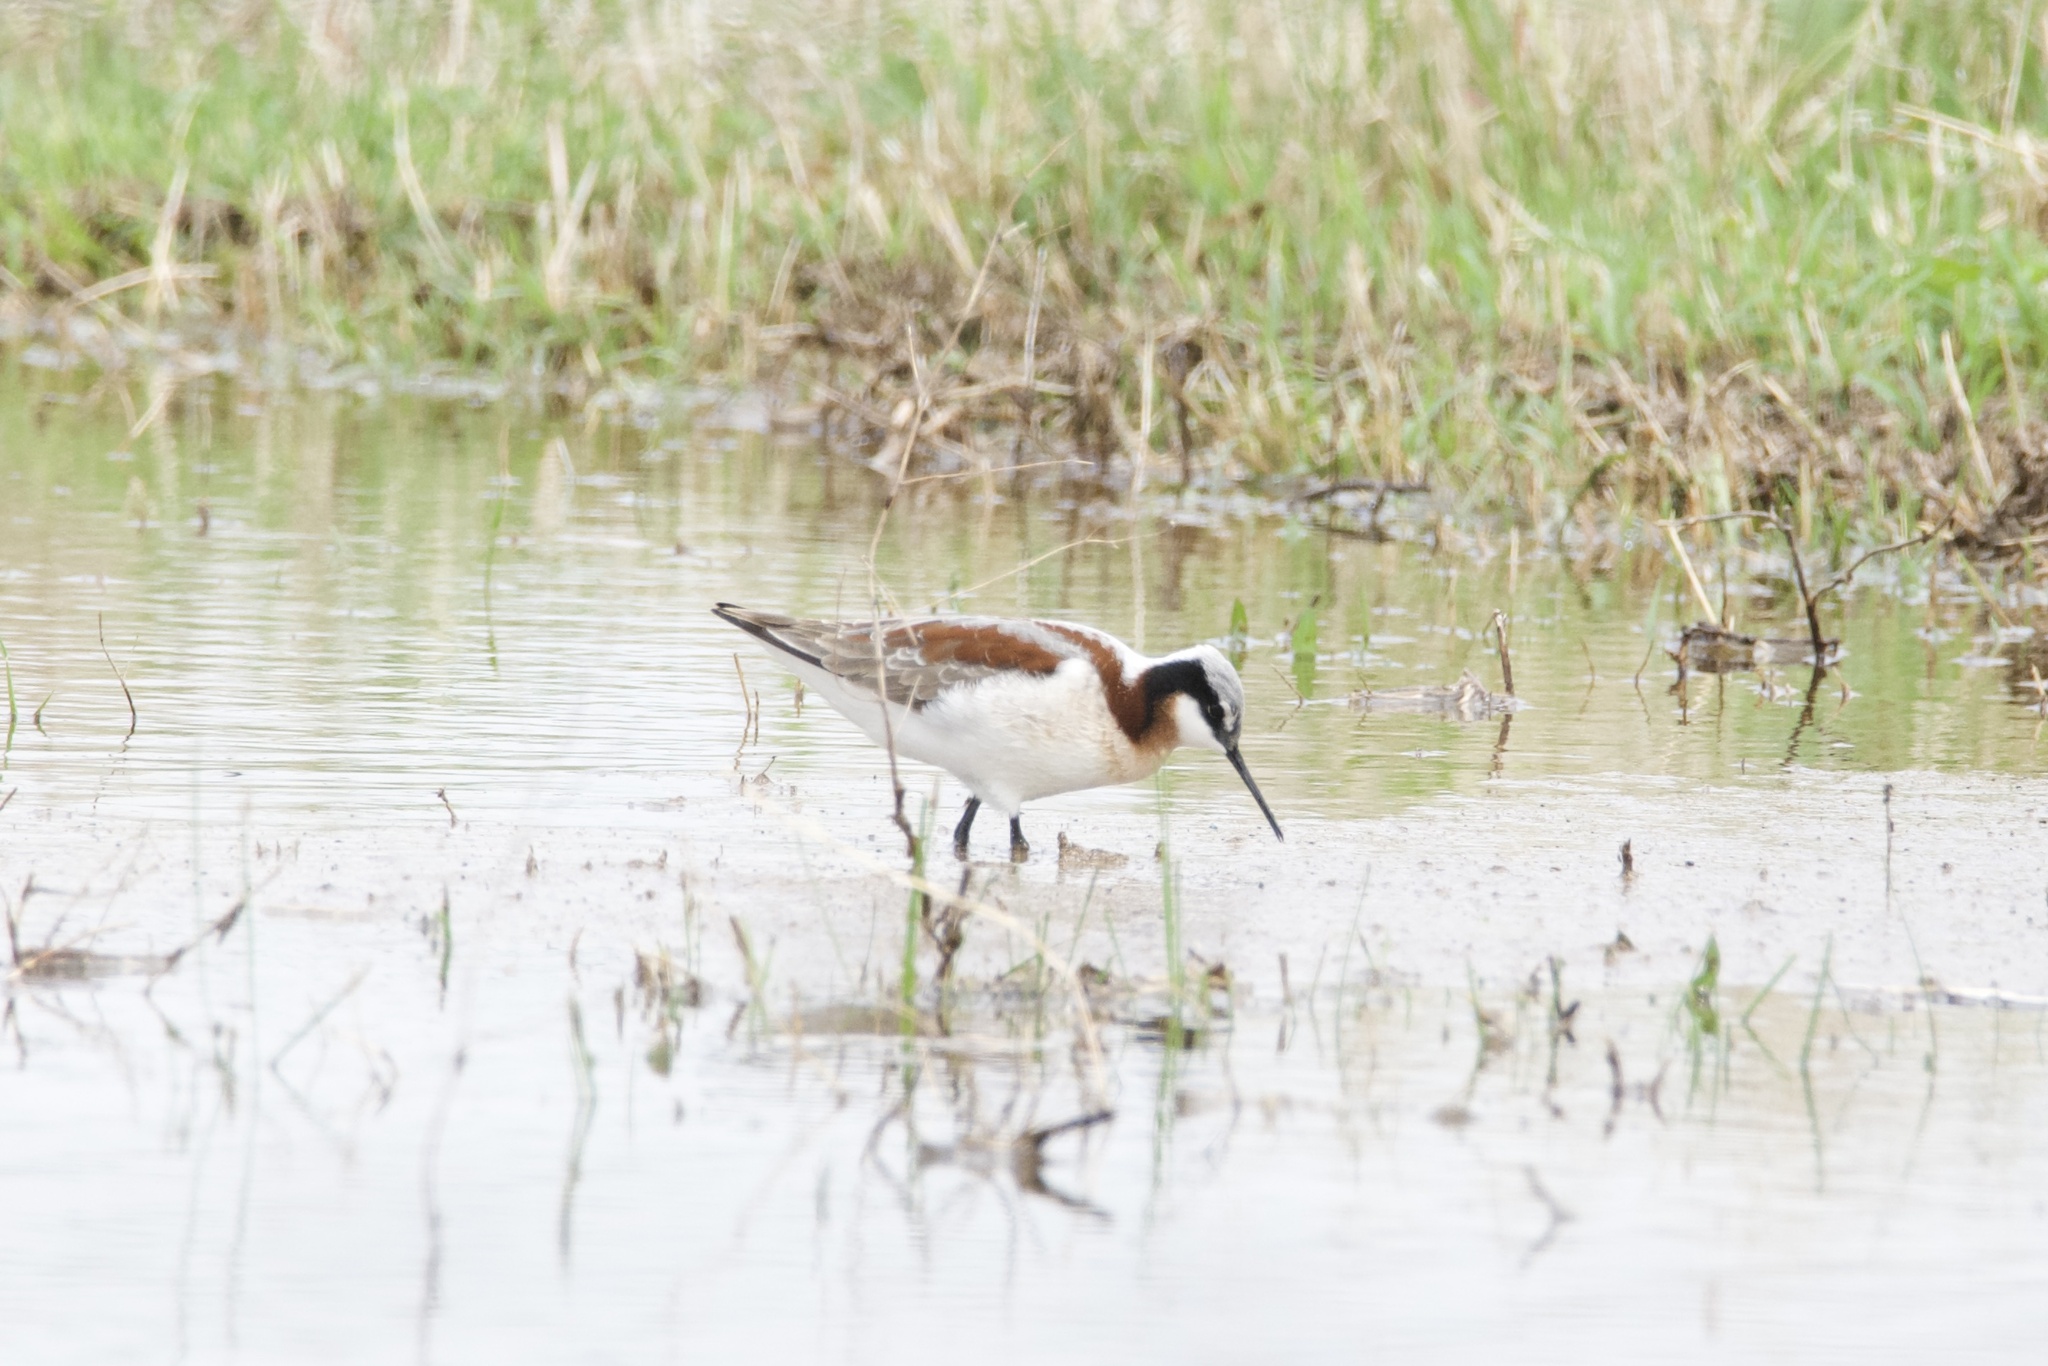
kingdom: Animalia
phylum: Chordata
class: Aves
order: Charadriiformes
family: Scolopacidae
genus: Phalaropus
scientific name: Phalaropus tricolor
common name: Wilson's phalarope
